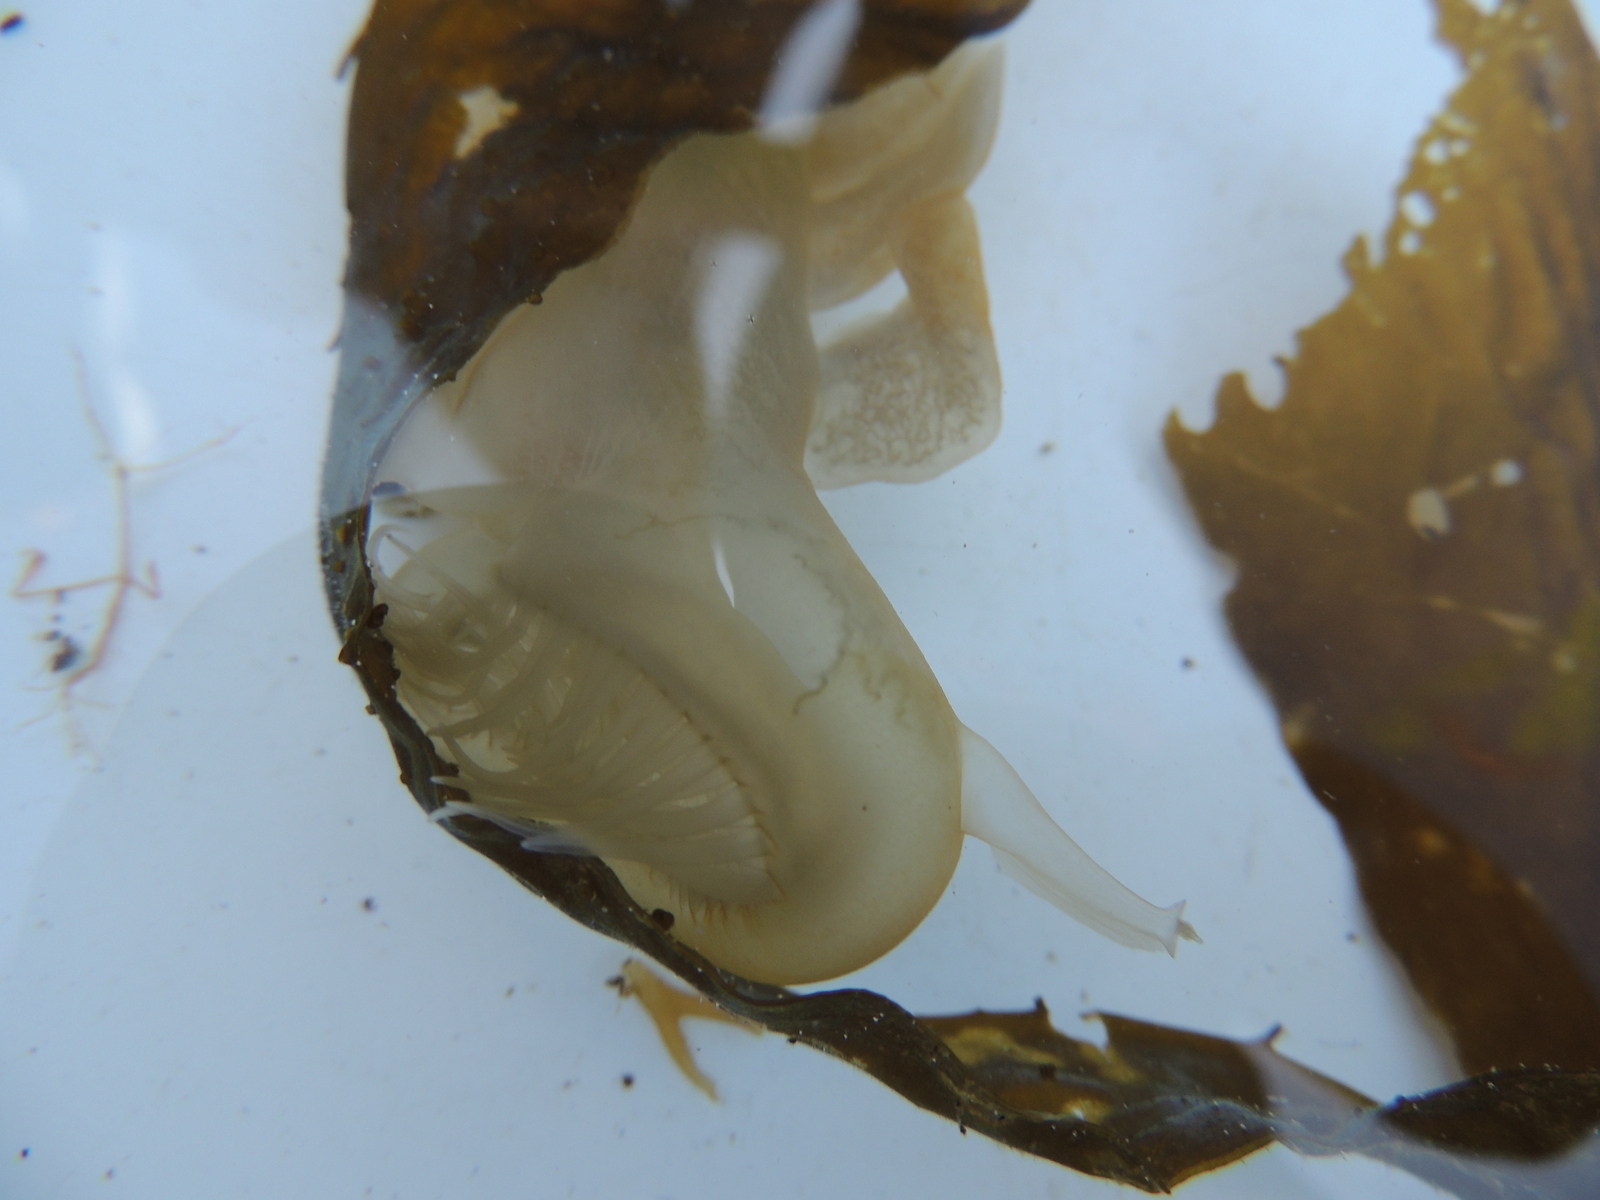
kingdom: Animalia
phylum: Mollusca
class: Gastropoda
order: Nudibranchia
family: Tethydidae
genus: Melibe
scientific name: Melibe leonina
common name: Lion nudibranch
